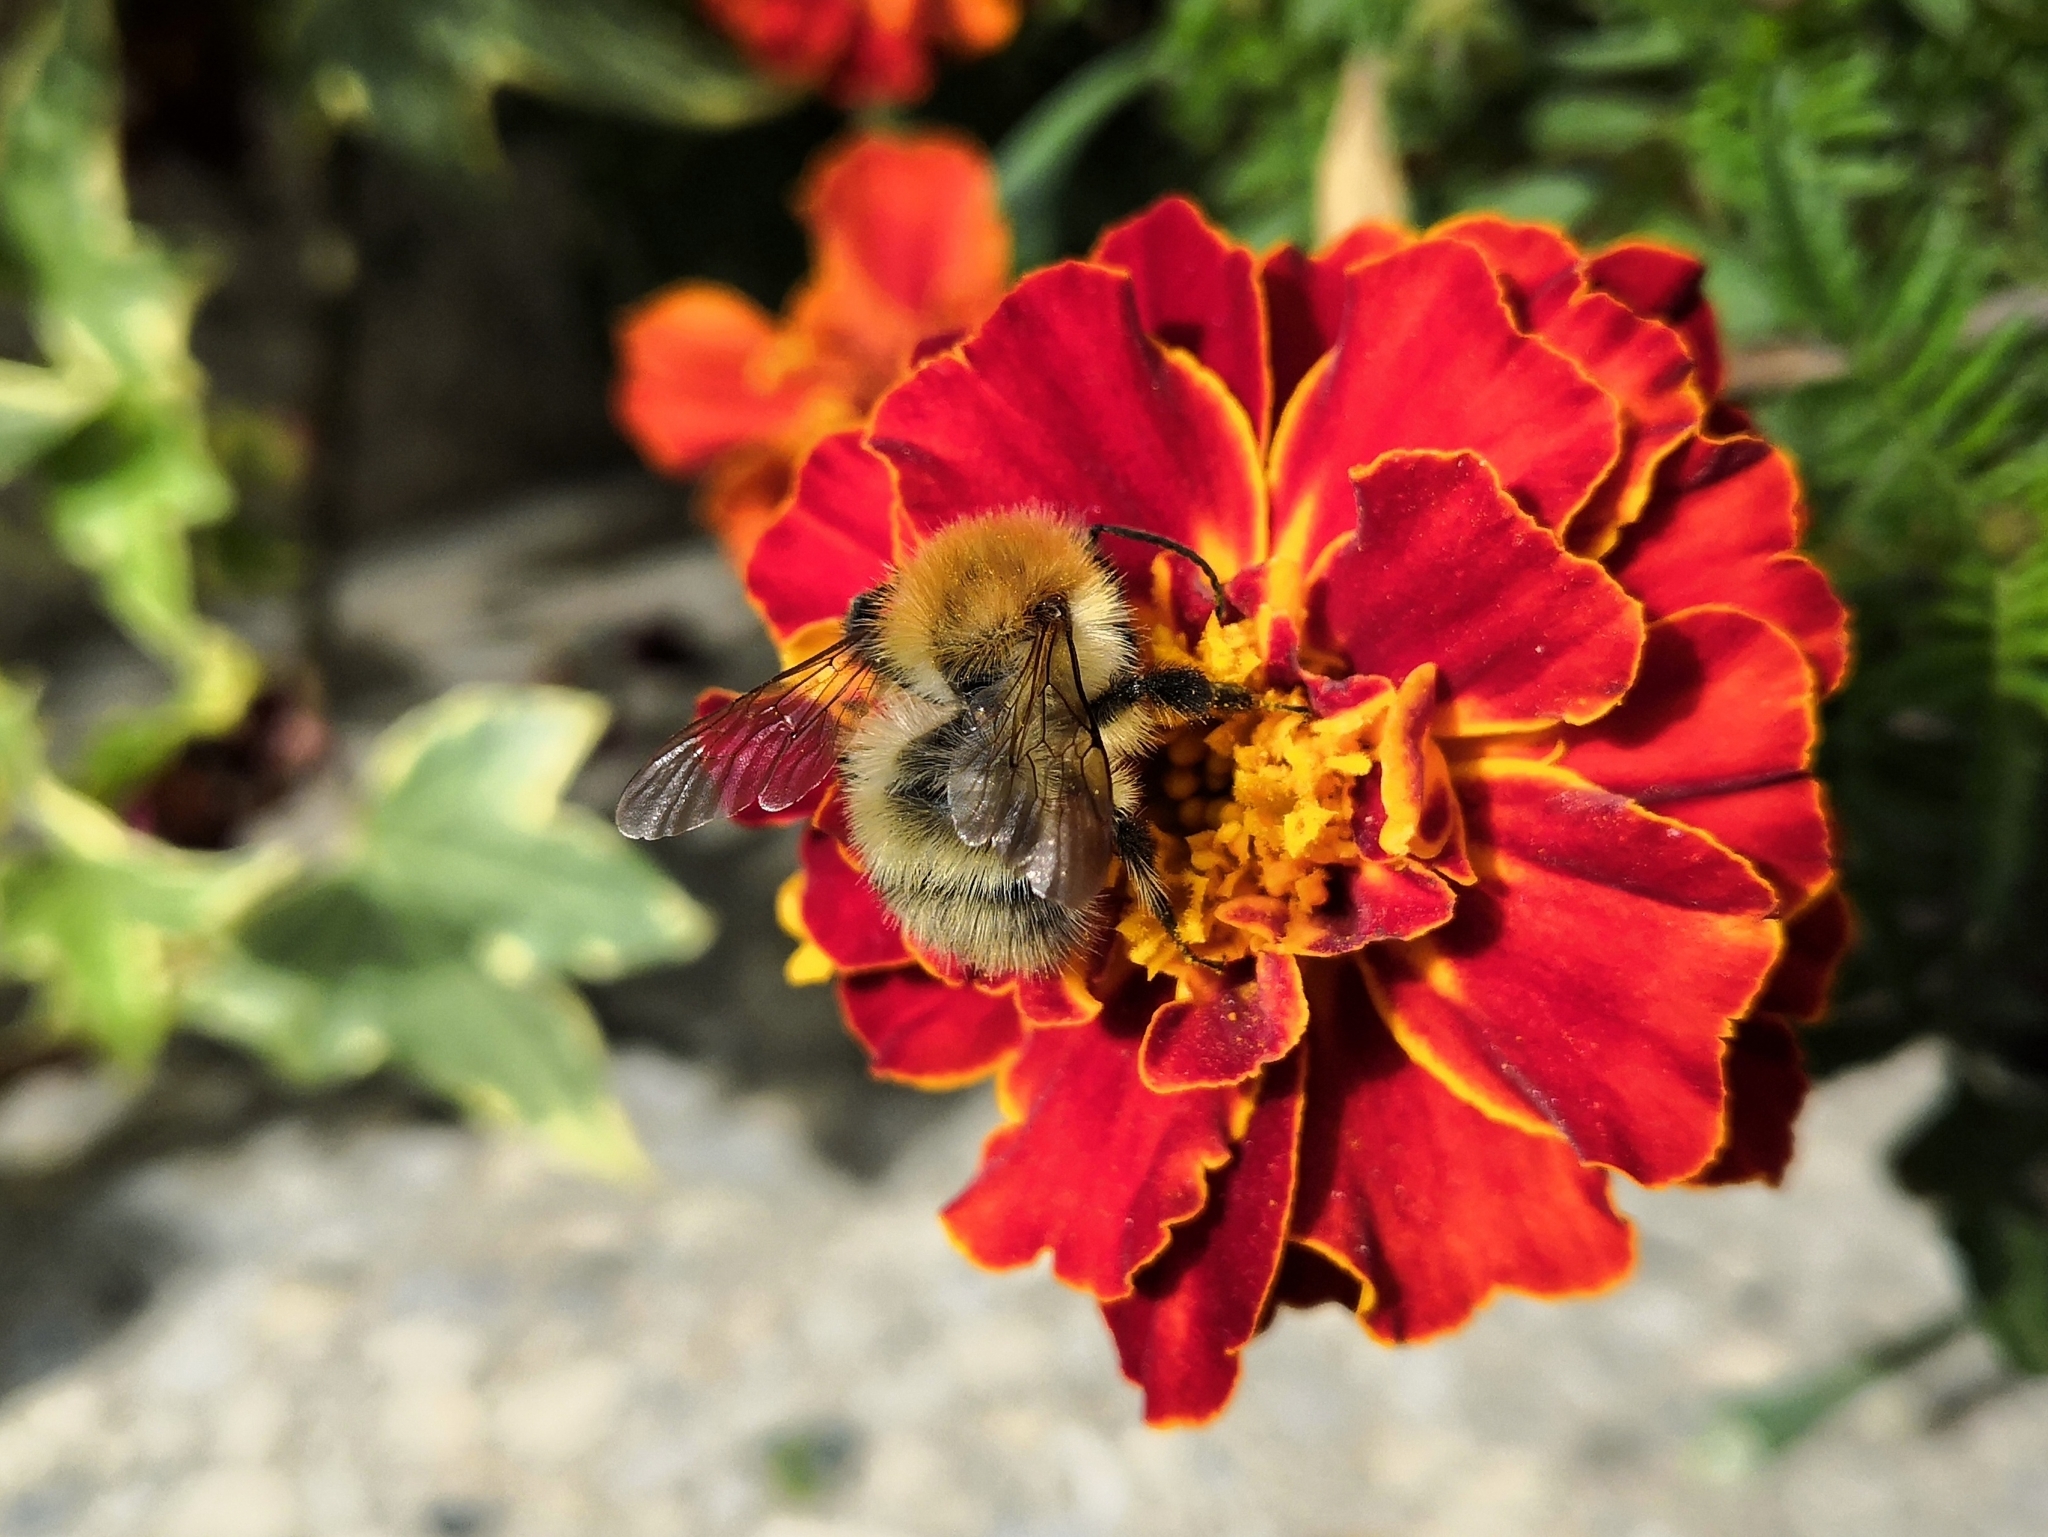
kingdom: Animalia
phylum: Arthropoda
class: Insecta
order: Hymenoptera
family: Apidae
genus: Bombus
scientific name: Bombus pascuorum
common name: Common carder bee
